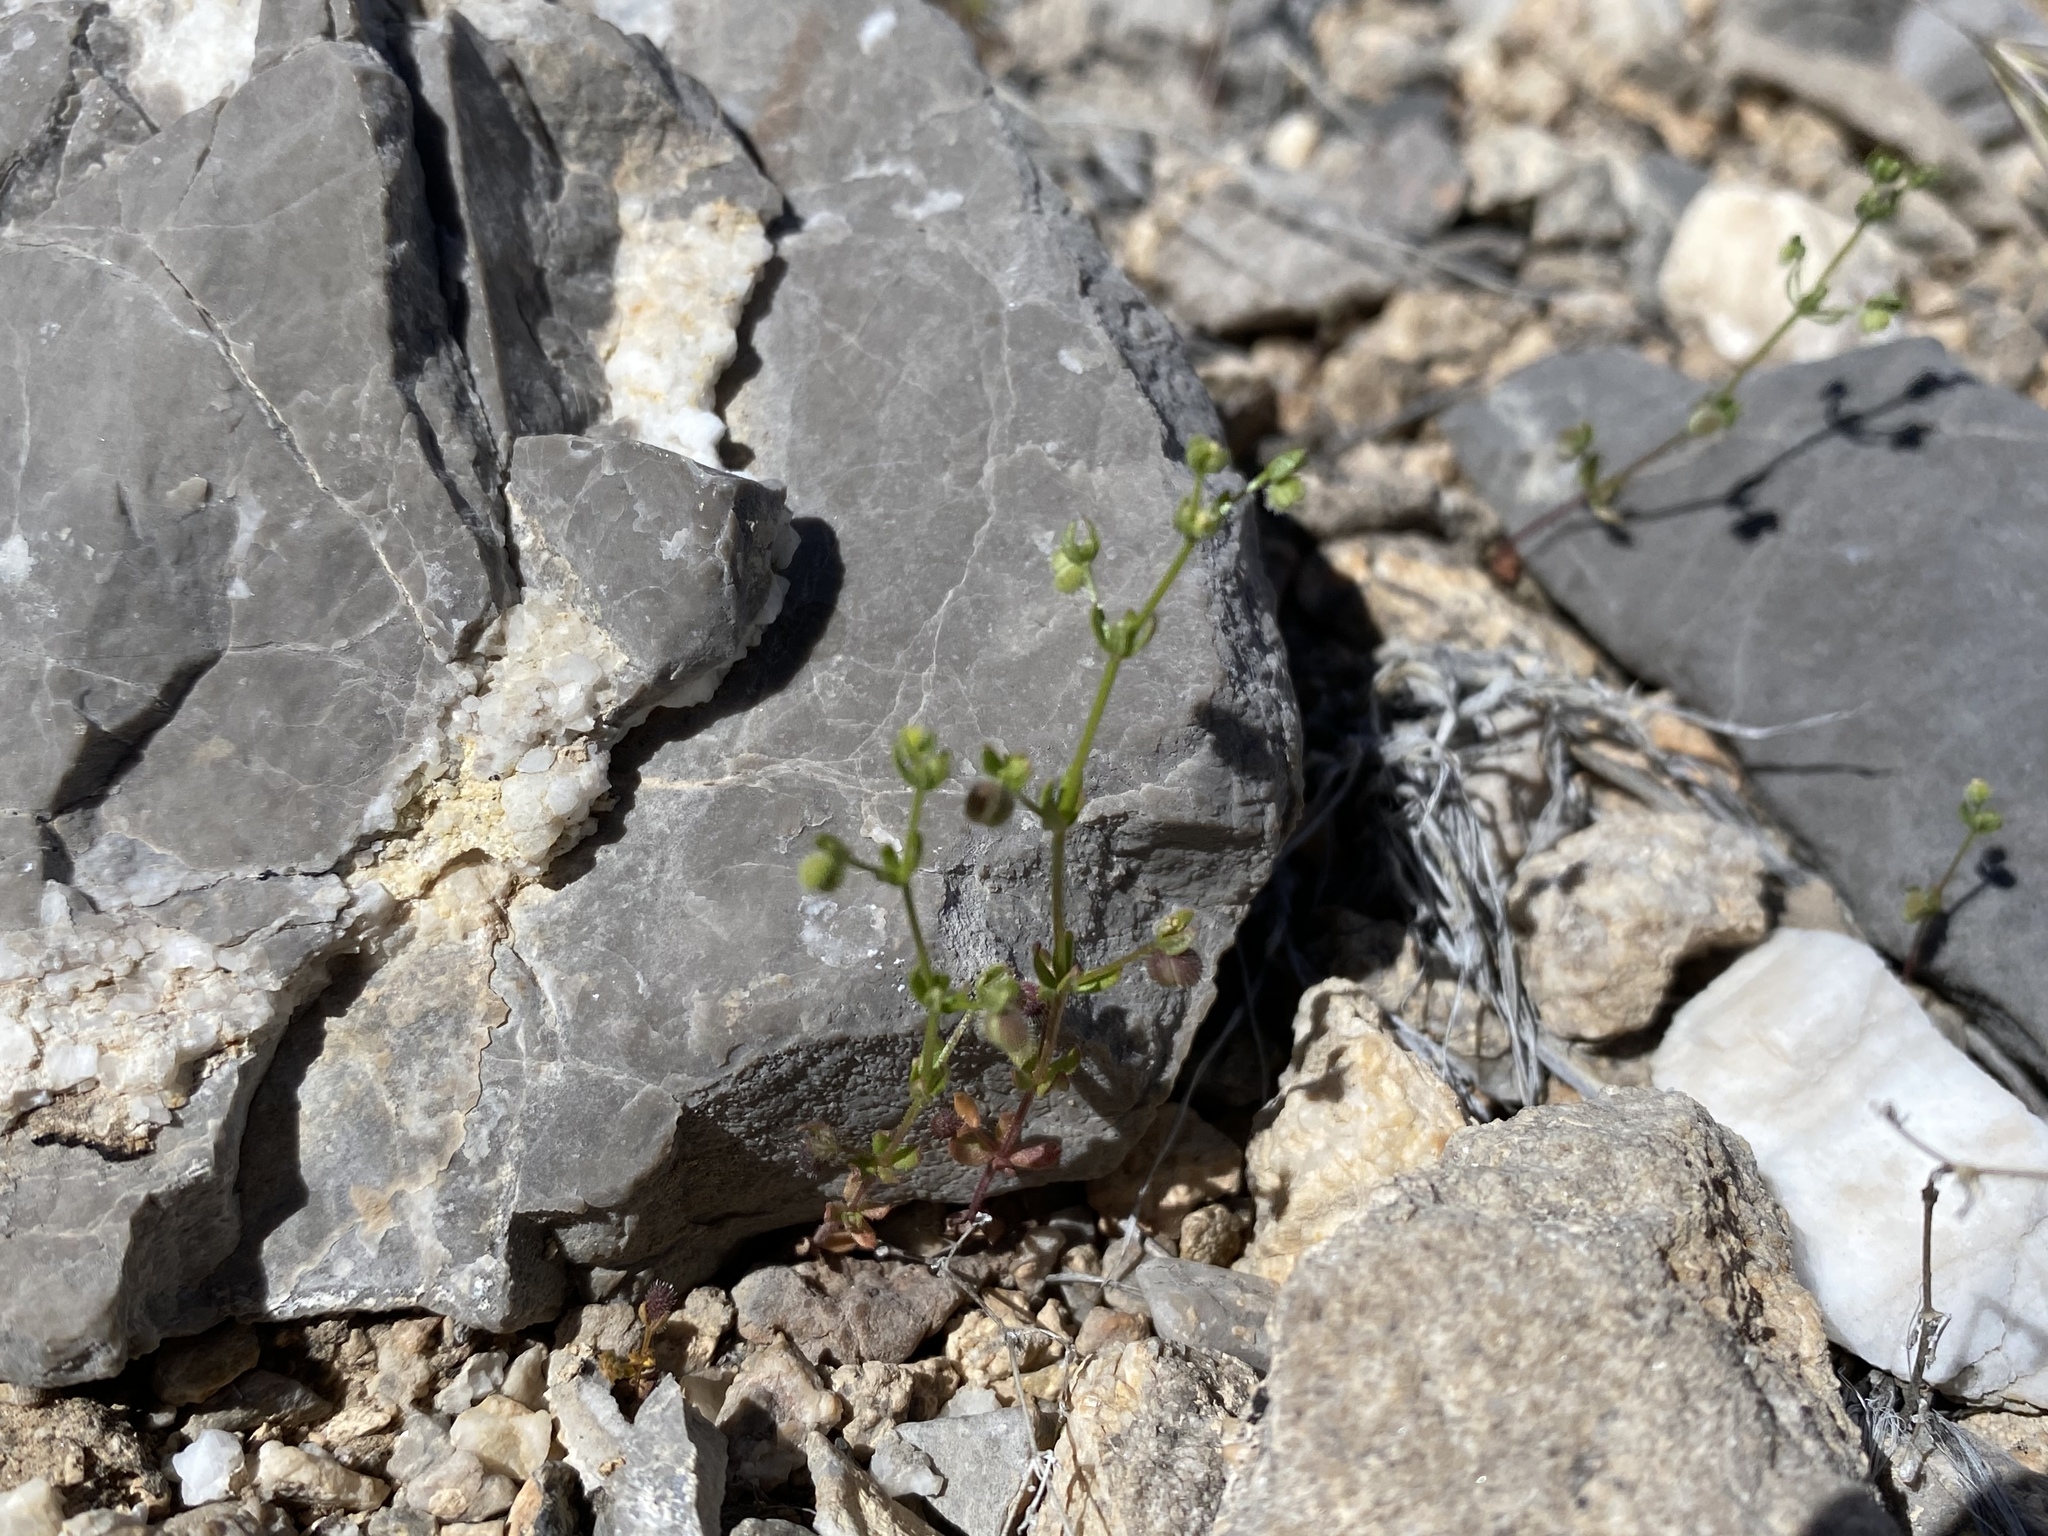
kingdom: Plantae
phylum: Tracheophyta
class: Magnoliopsida
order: Gentianales
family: Rubiaceae
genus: Galium
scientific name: Galium proliferum
